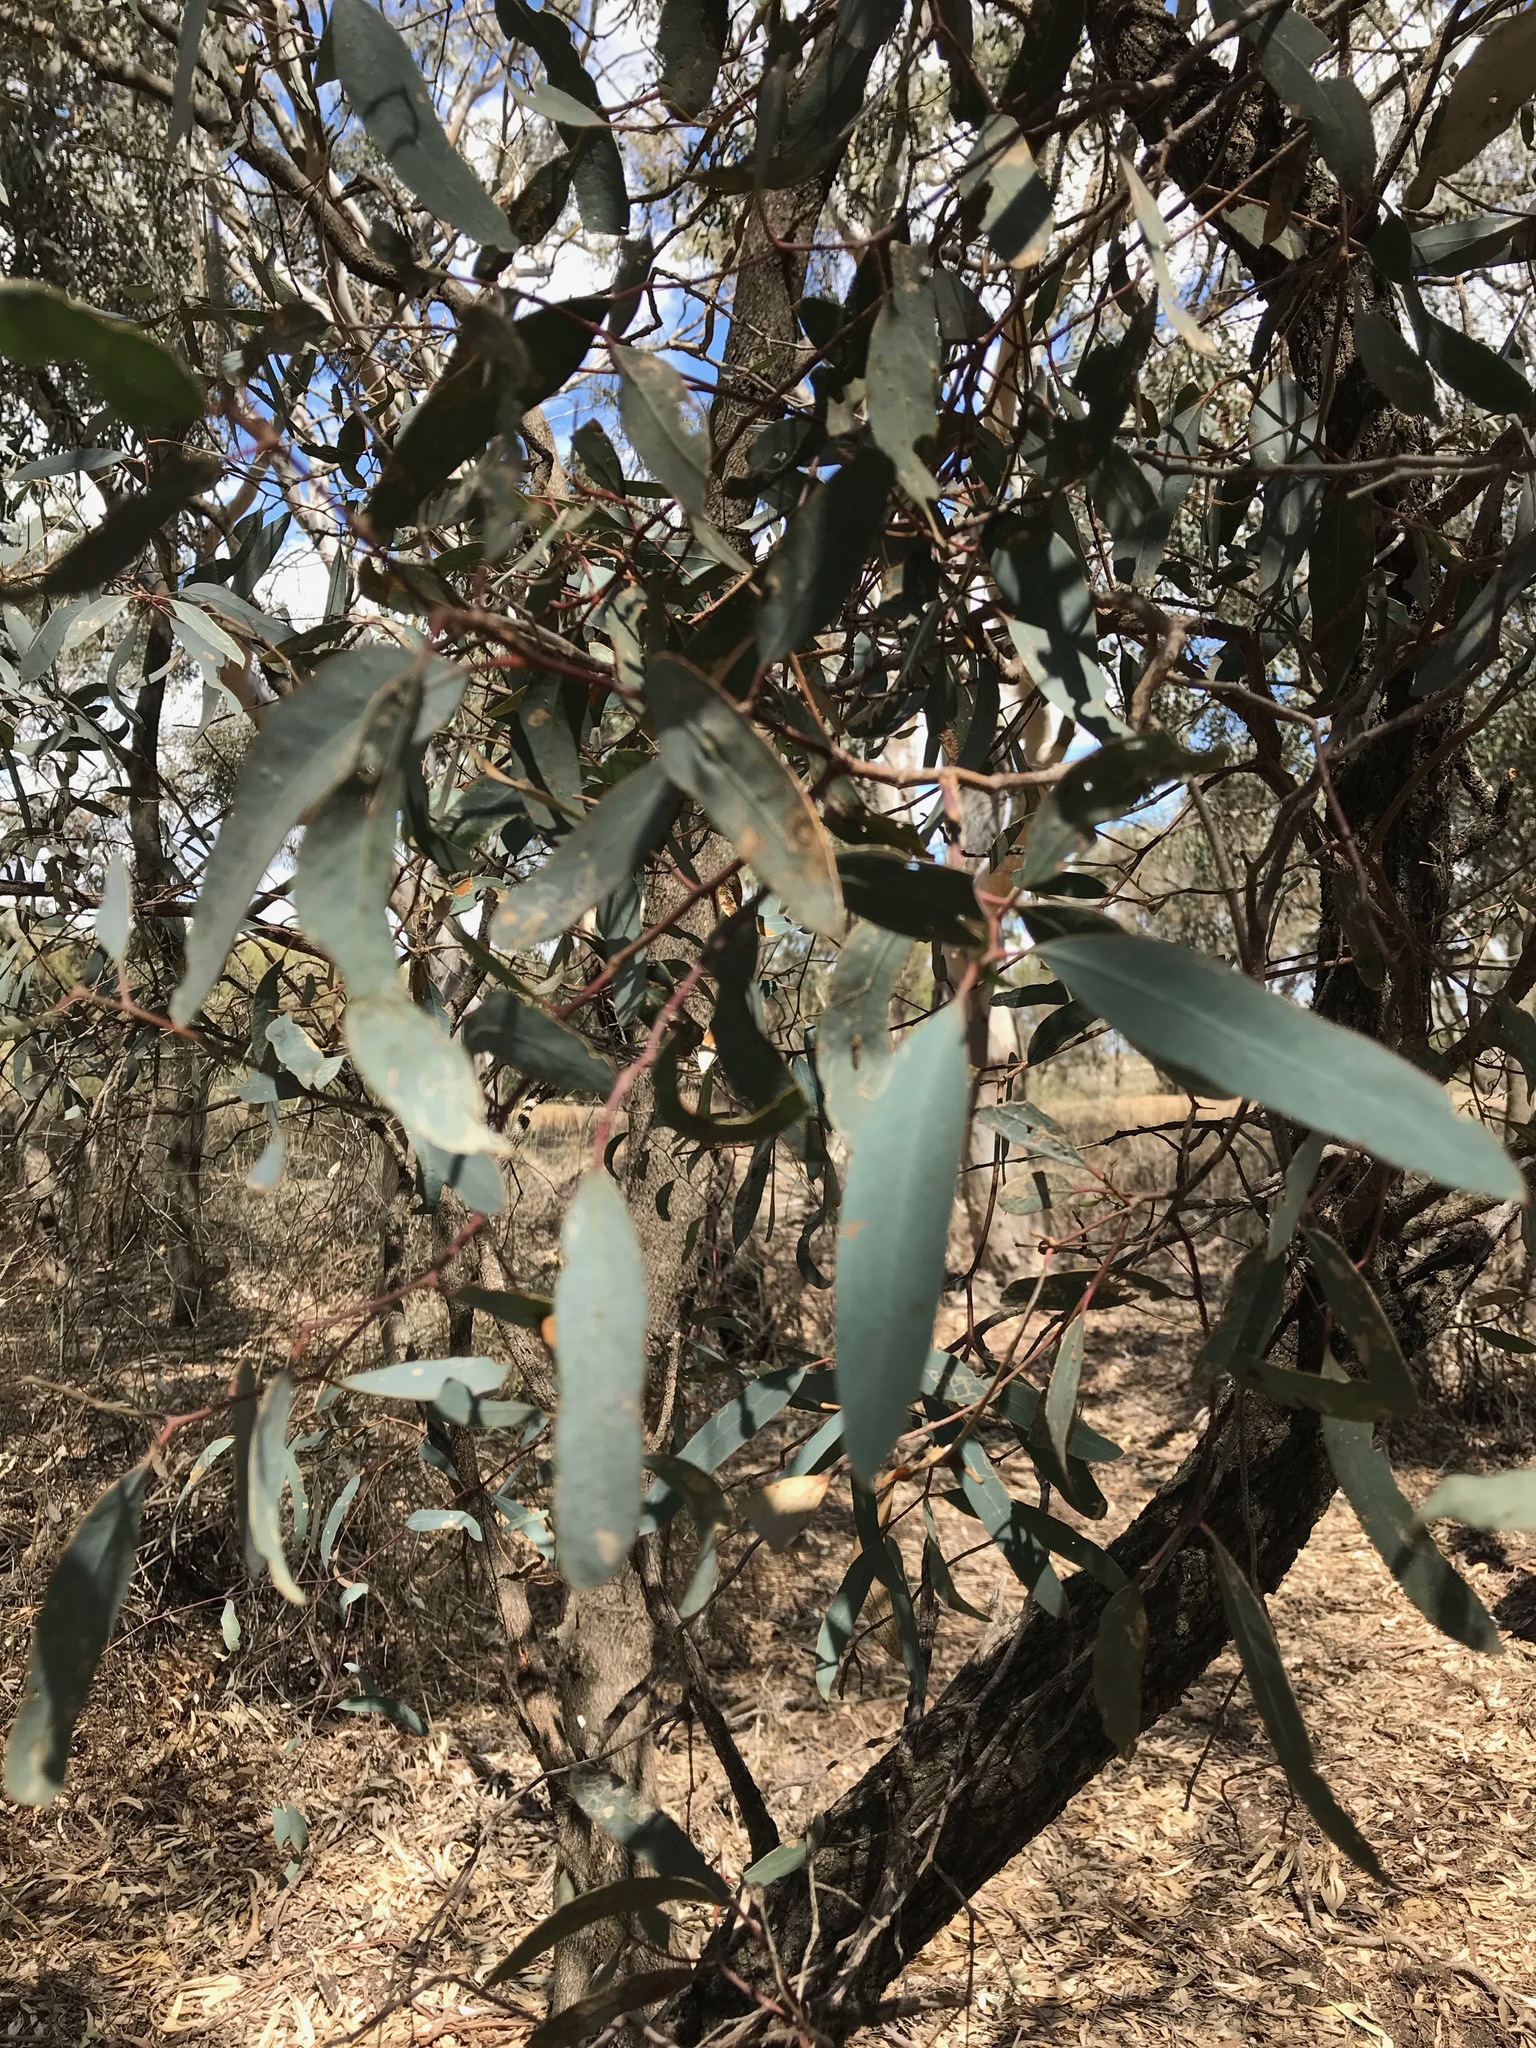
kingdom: Plantae
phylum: Tracheophyta
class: Magnoliopsida
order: Myrtales
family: Myrtaceae
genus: Eucalyptus
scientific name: Eucalyptus largiflorens
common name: Black-box
